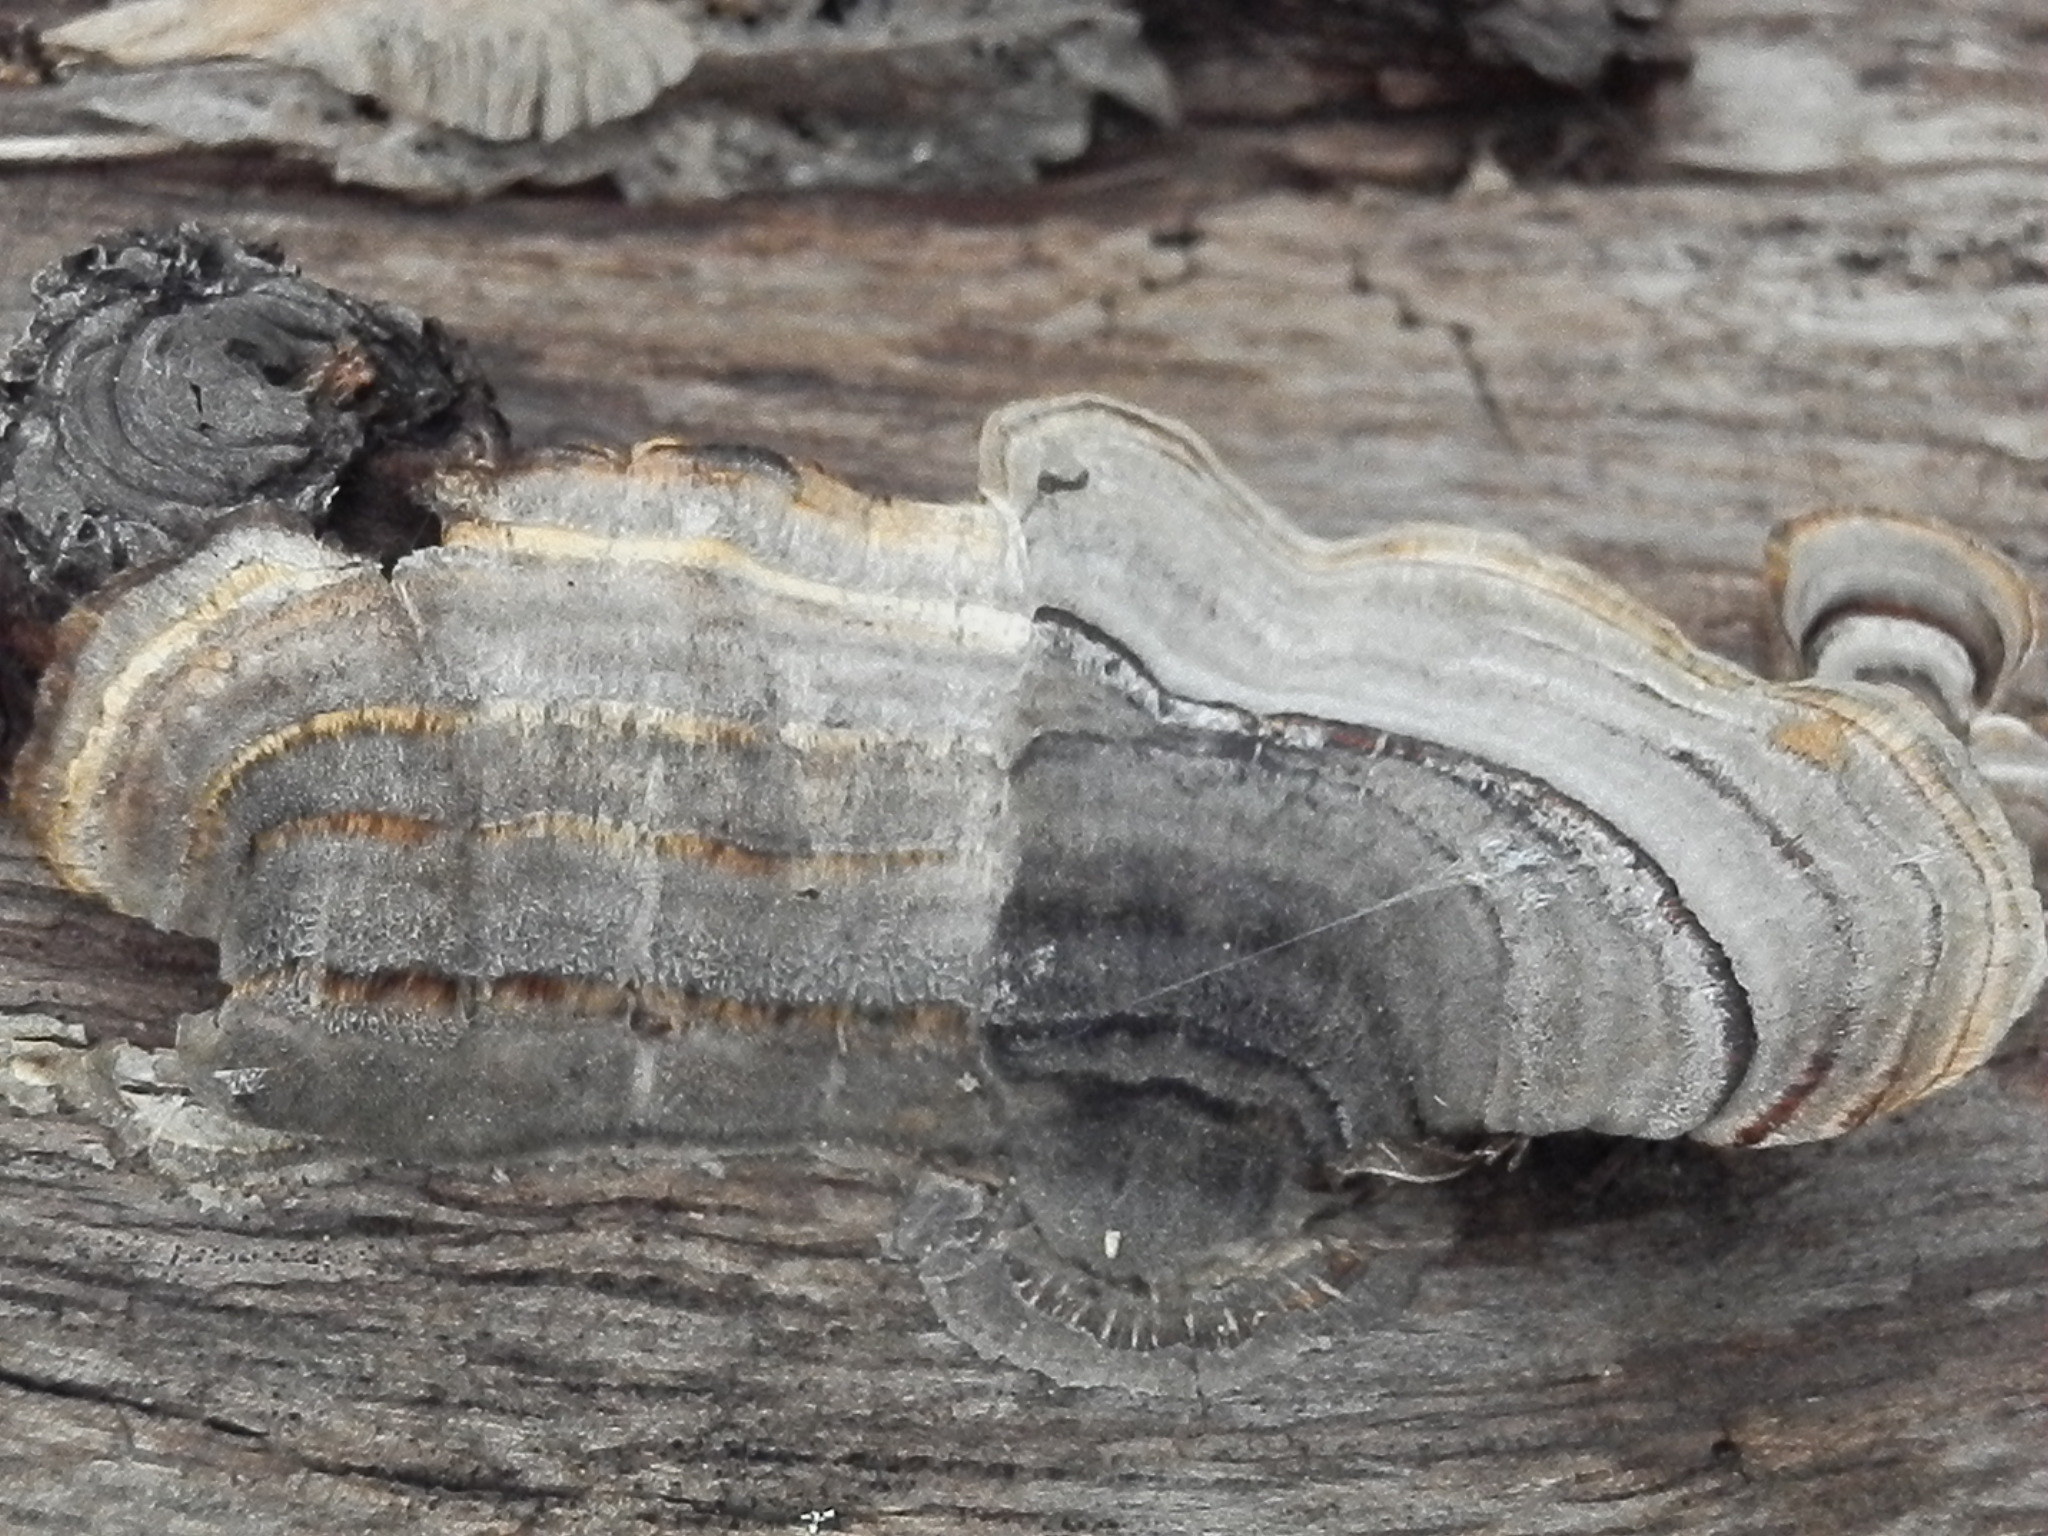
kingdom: Fungi
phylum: Basidiomycota
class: Agaricomycetes
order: Polyporales
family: Polyporaceae
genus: Trametes
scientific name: Trametes versicolor
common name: Turkeytail
